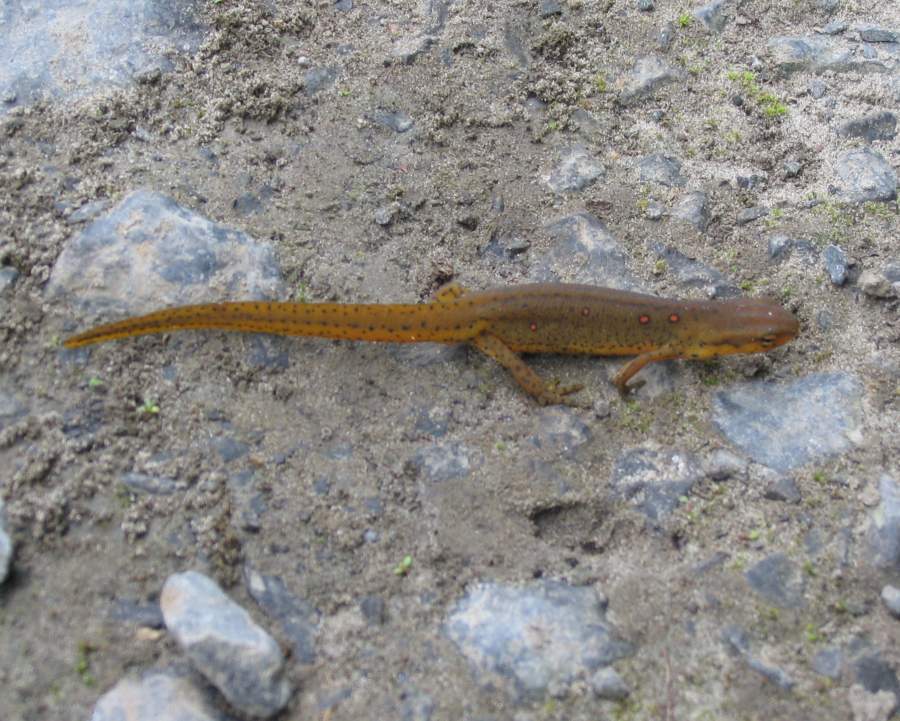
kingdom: Animalia
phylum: Chordata
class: Amphibia
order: Caudata
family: Salamandridae
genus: Notophthalmus
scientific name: Notophthalmus viridescens
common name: Eastern newt
